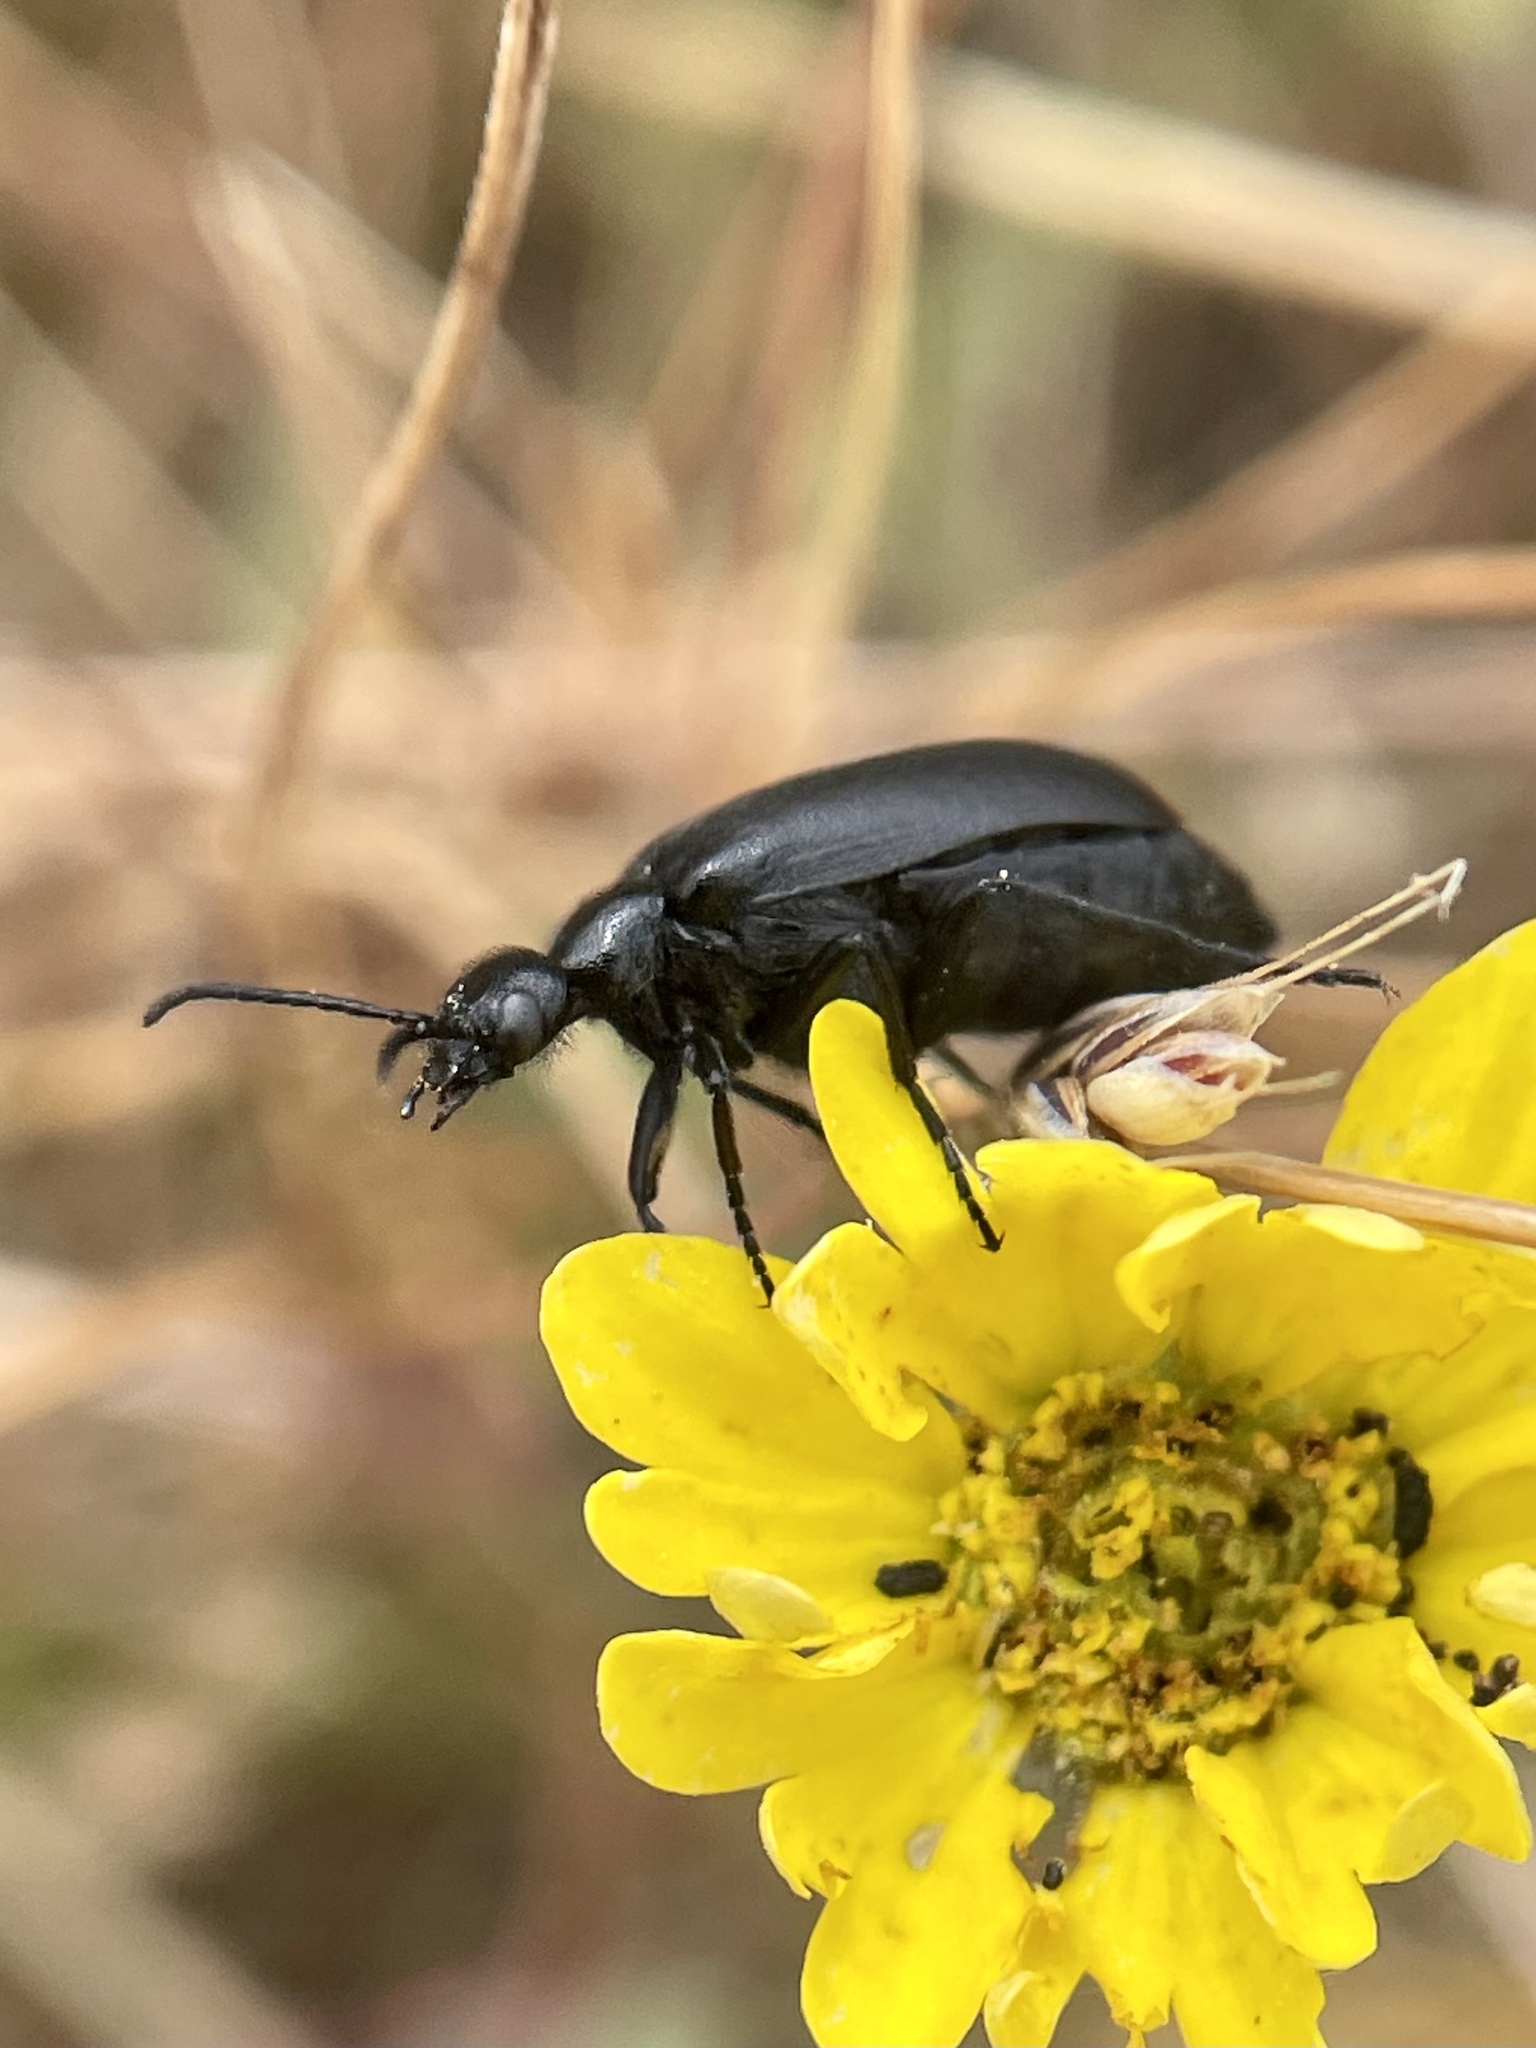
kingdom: Animalia
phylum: Arthropoda
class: Insecta
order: Coleoptera
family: Meloidae
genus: Epicauta
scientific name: Epicauta puncticollis
